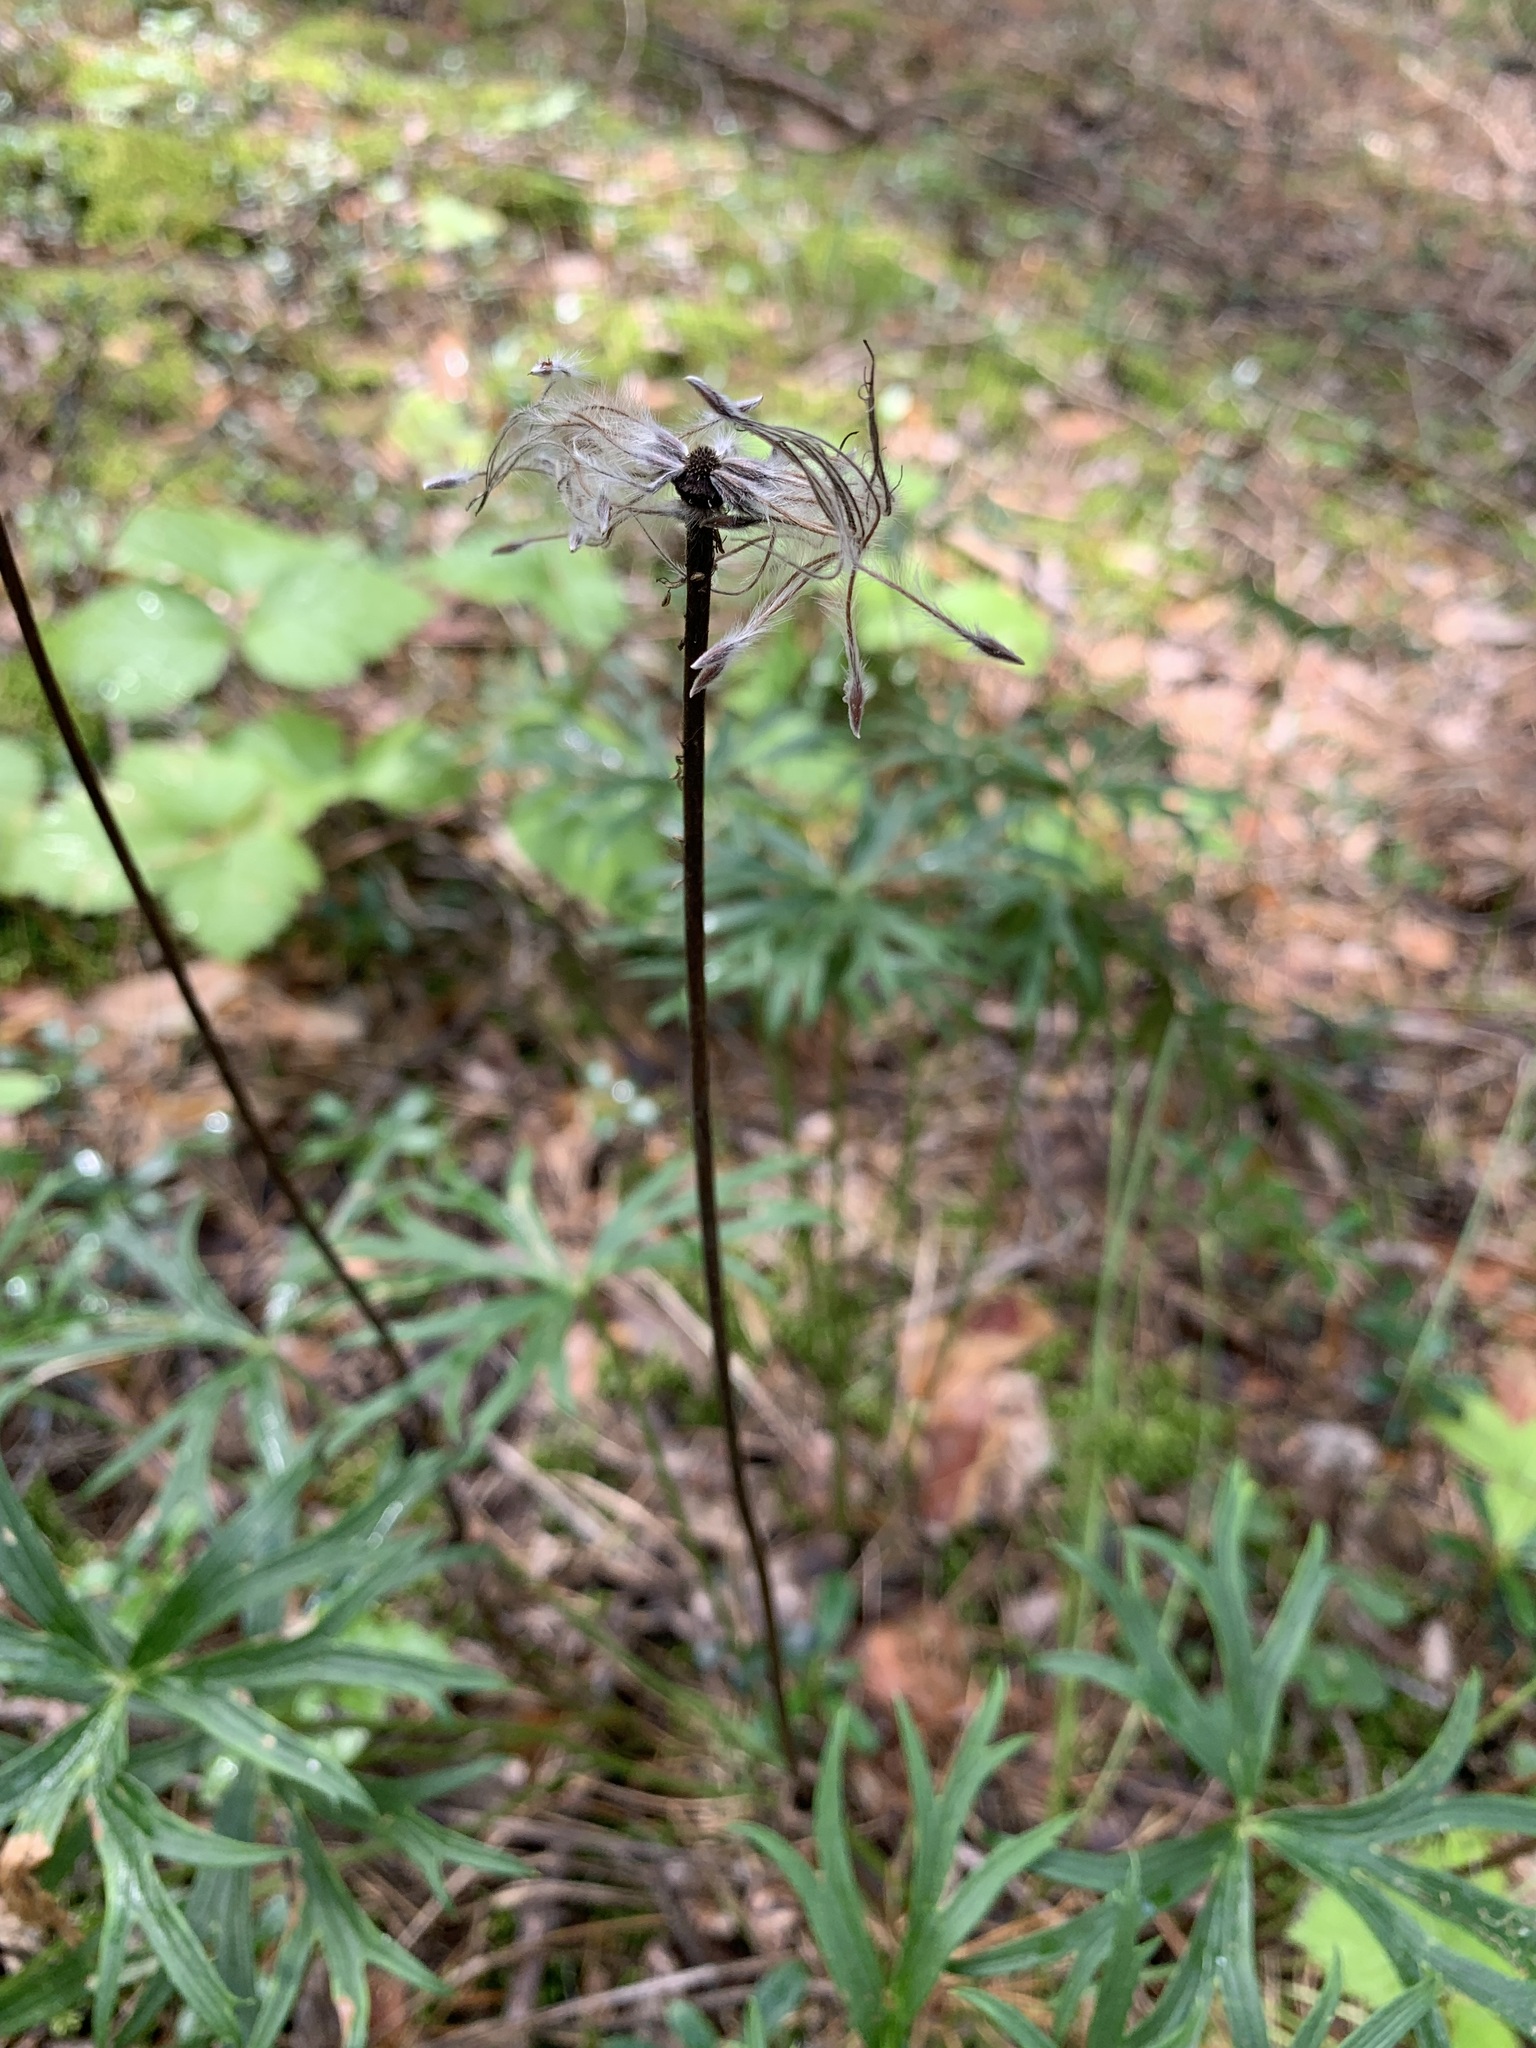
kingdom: Plantae
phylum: Tracheophyta
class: Magnoliopsida
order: Ranunculales
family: Ranunculaceae
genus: Pulsatilla
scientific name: Pulsatilla patens
